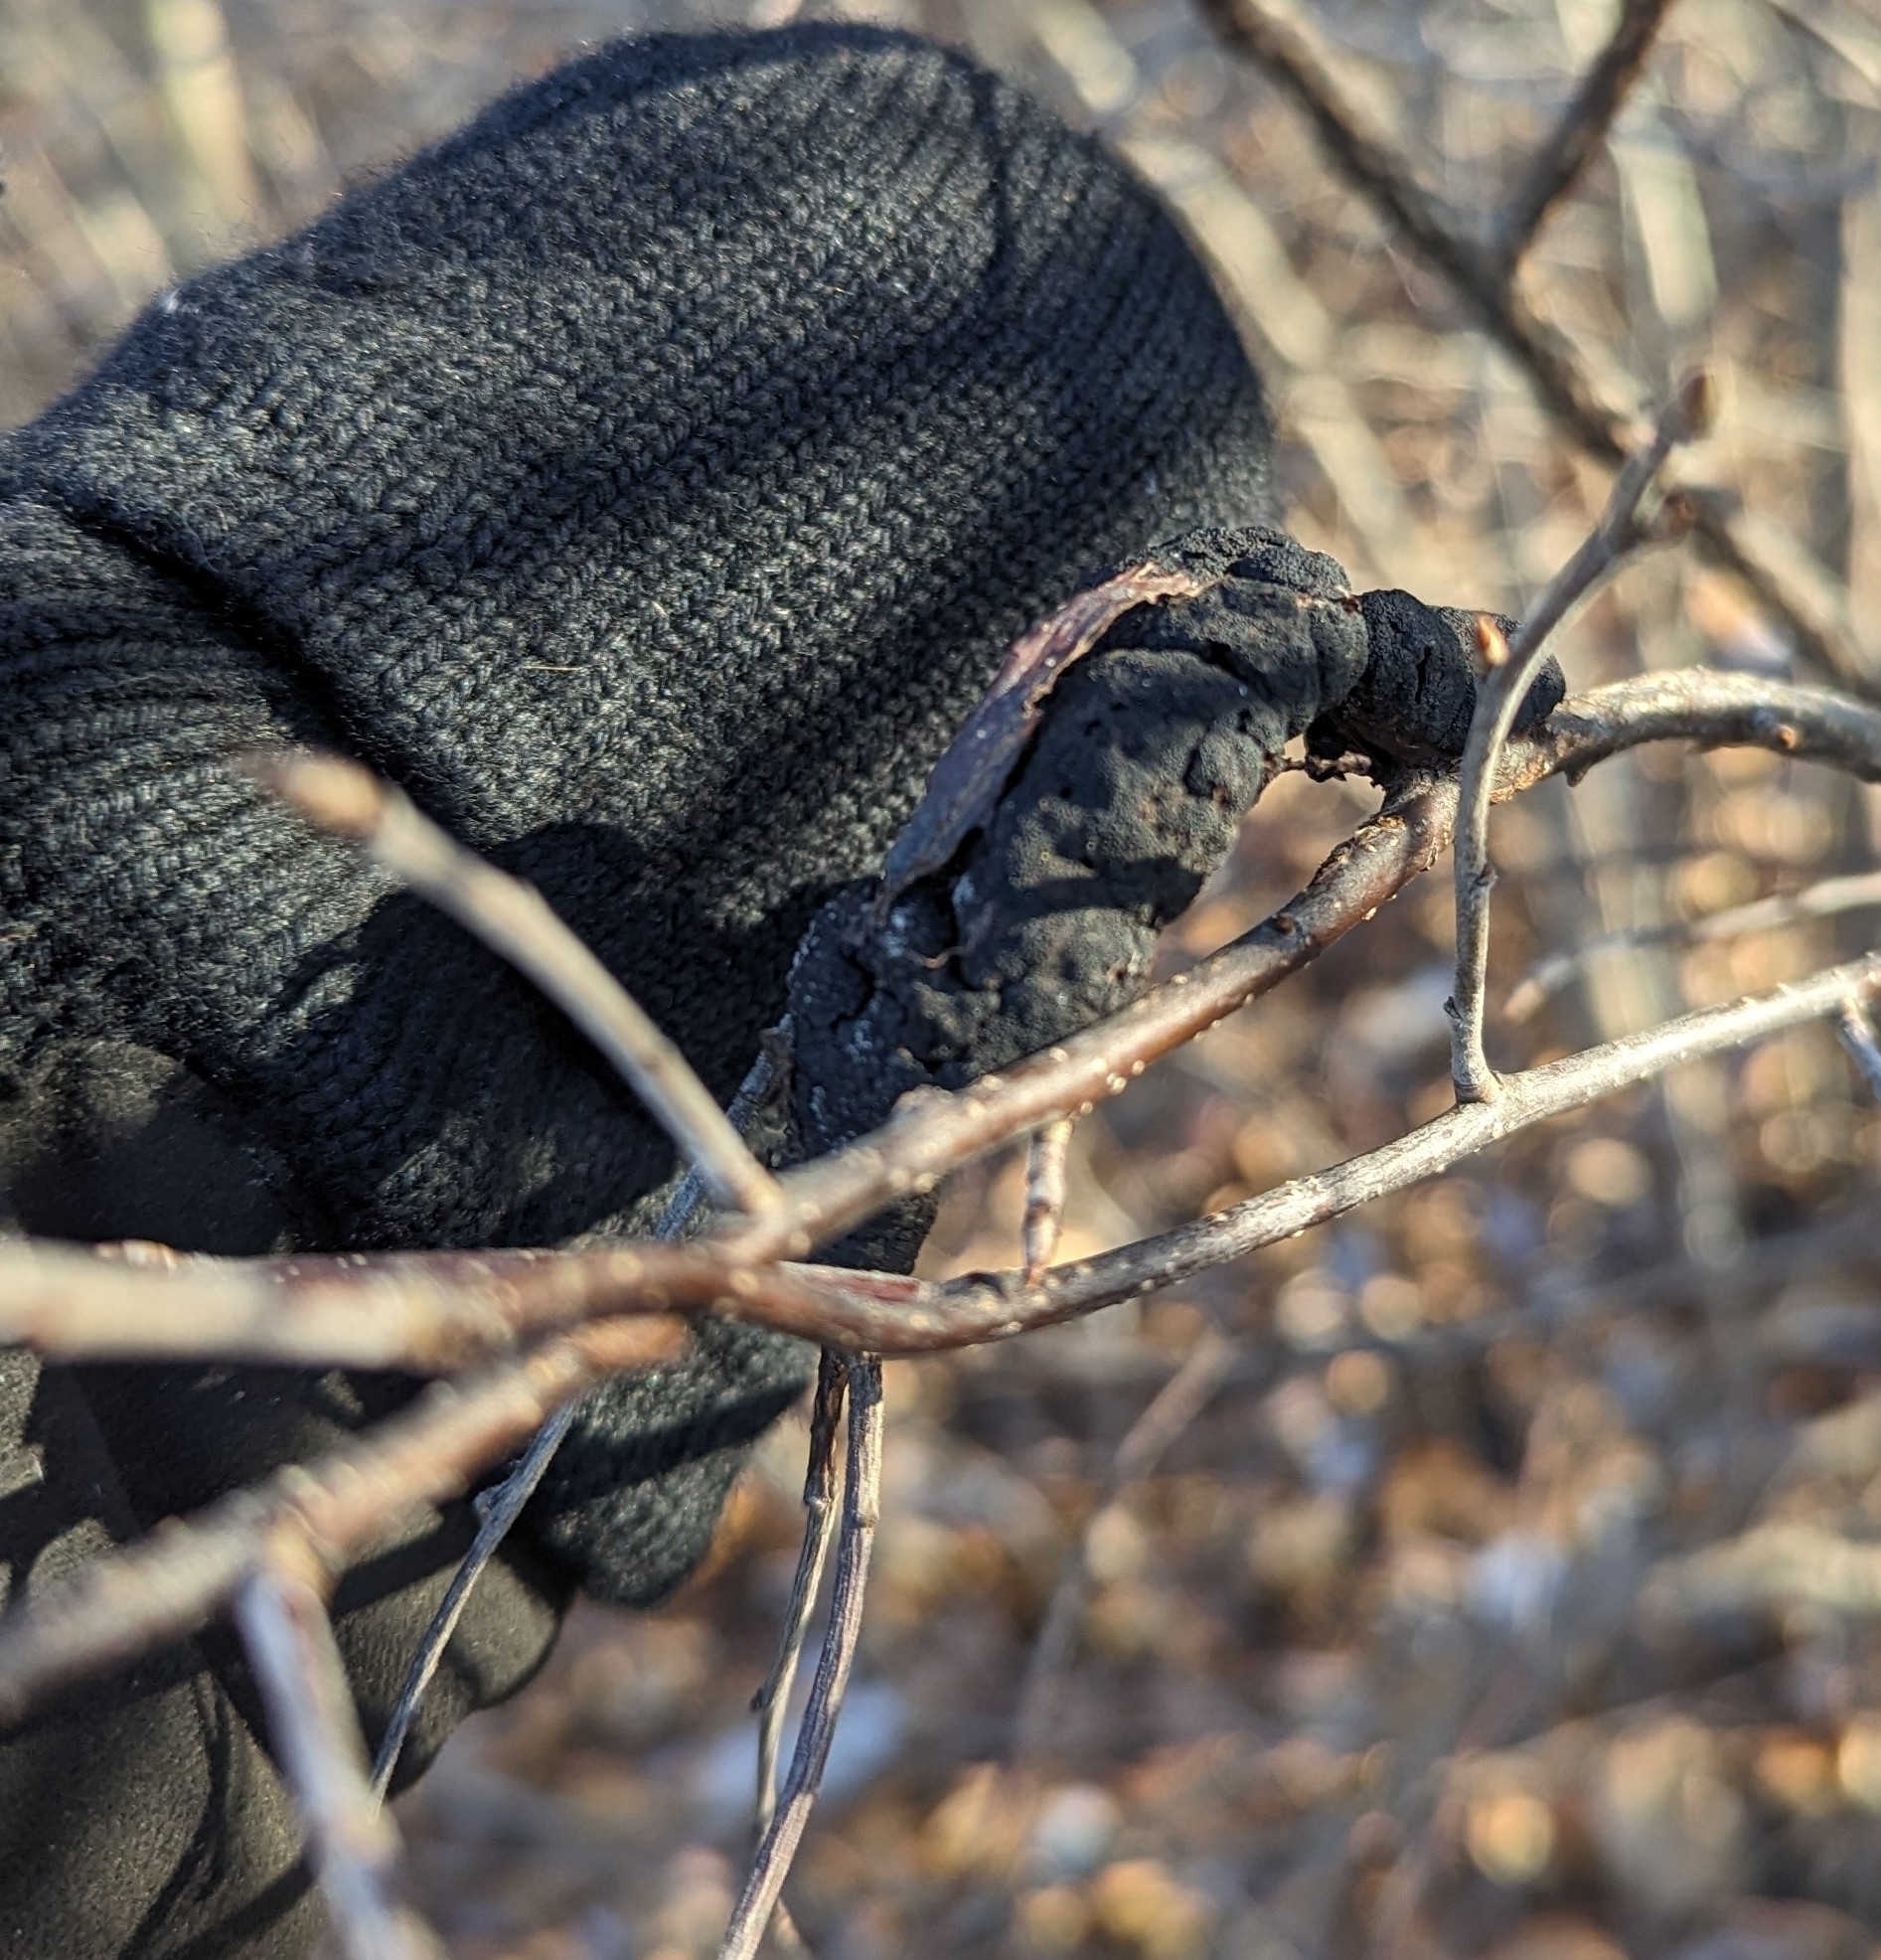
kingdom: Fungi
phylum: Ascomycota
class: Dothideomycetes
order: Venturiales
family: Venturiaceae
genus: Apiosporina
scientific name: Apiosporina morbosa
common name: Black knot
